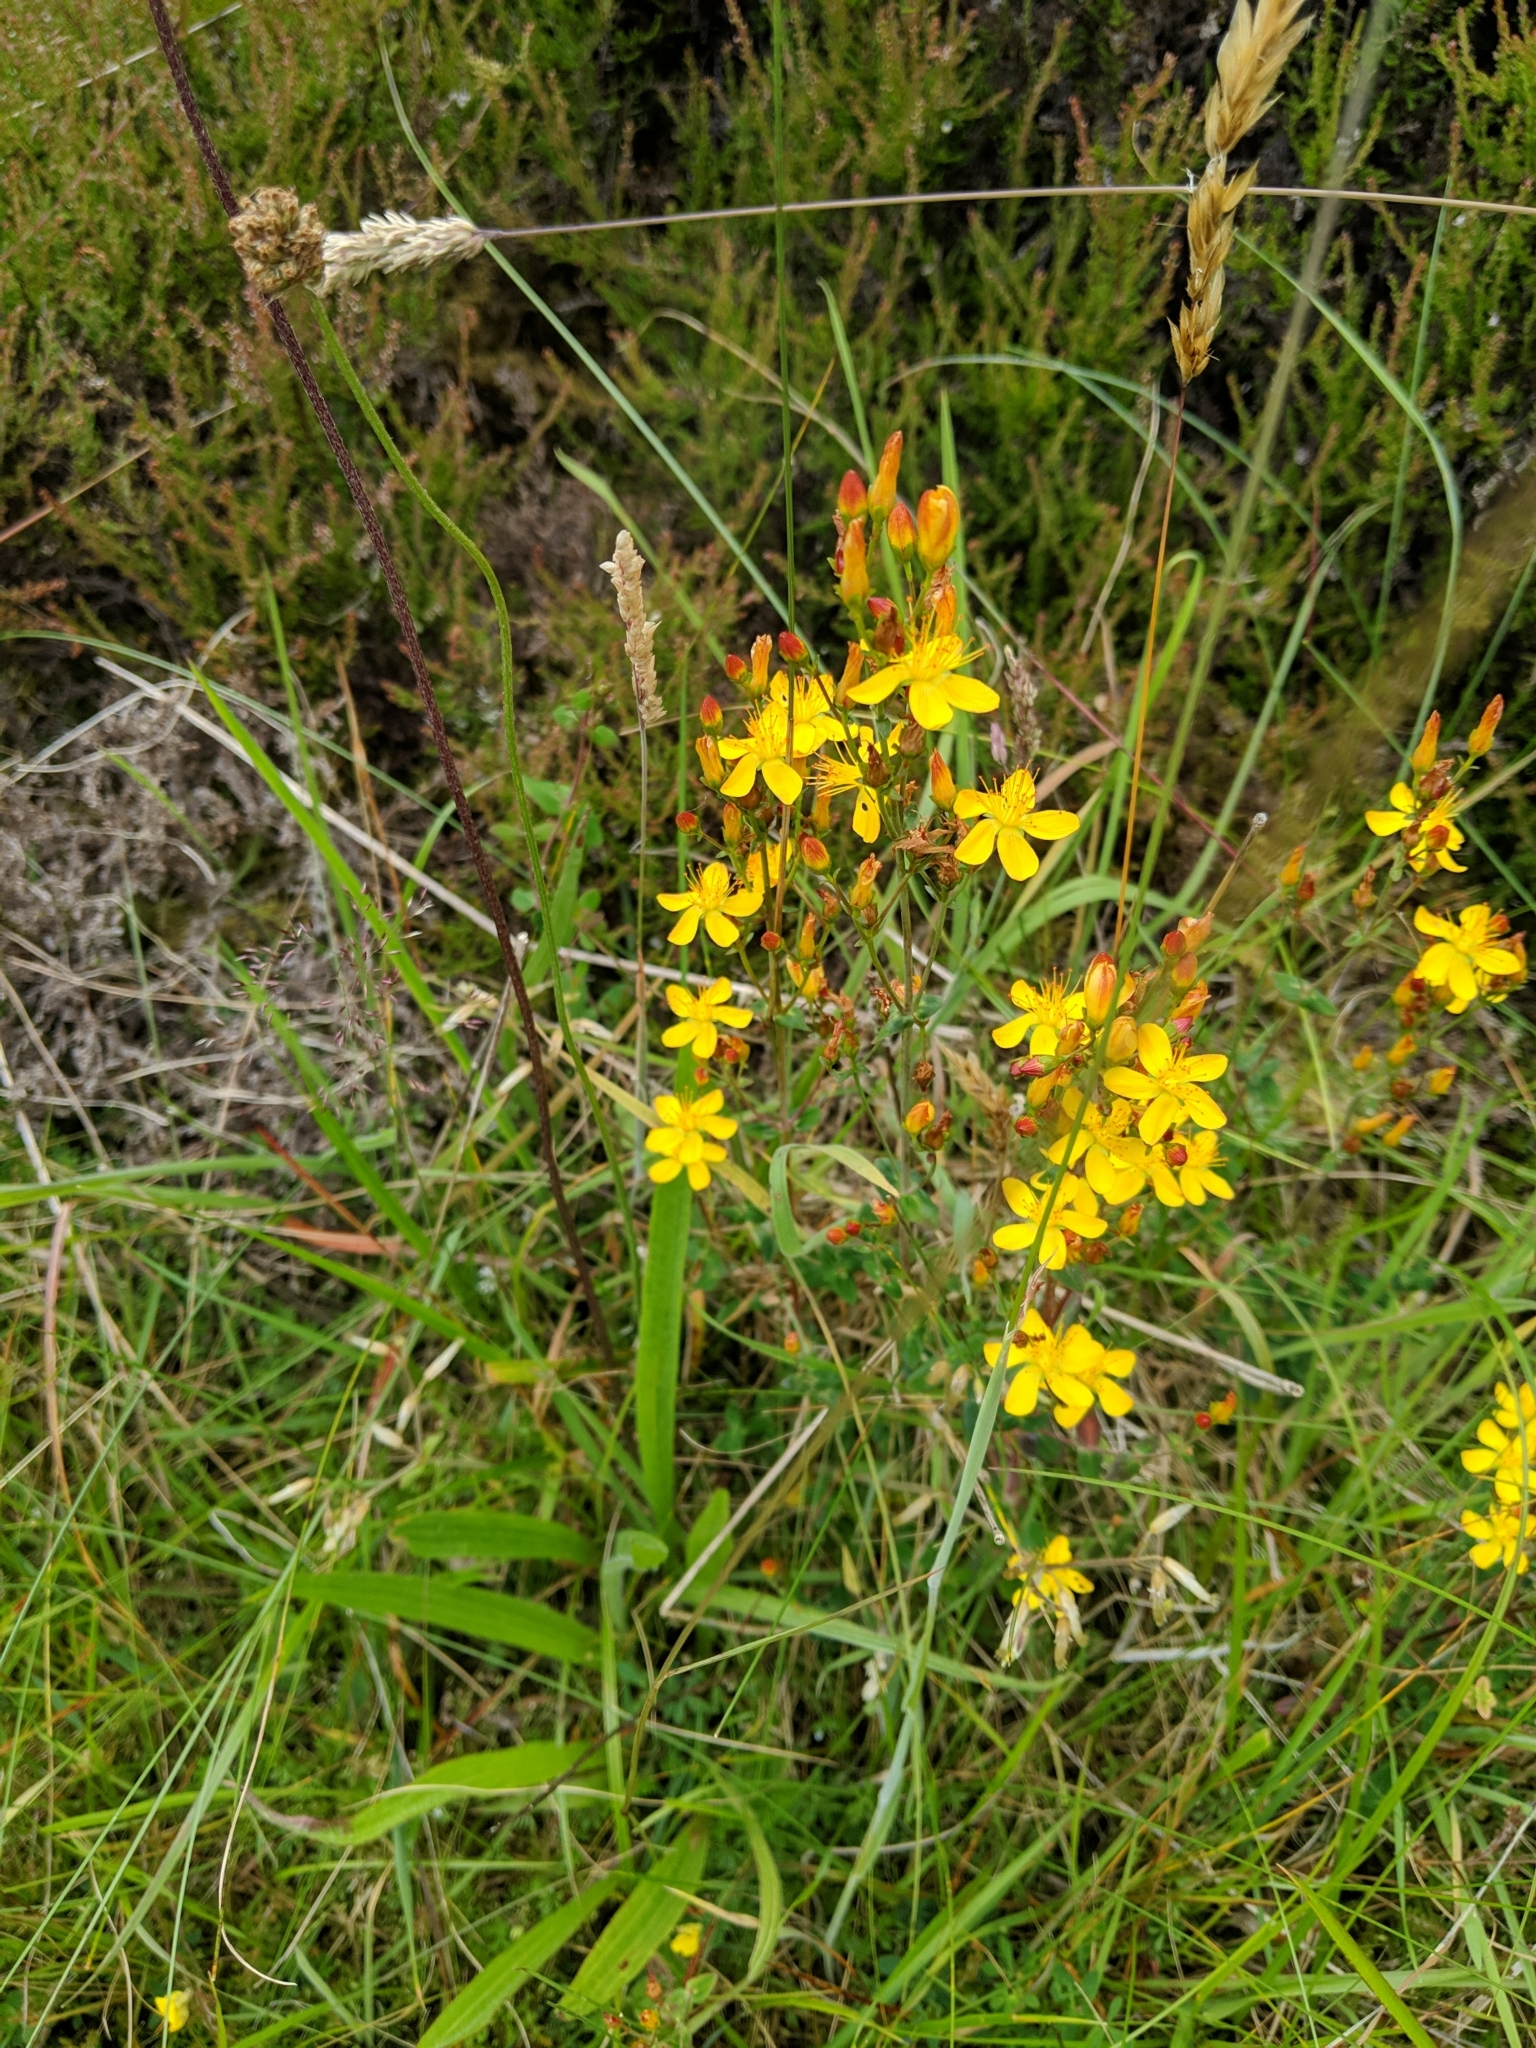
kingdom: Plantae
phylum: Tracheophyta
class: Magnoliopsida
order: Malpighiales
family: Hypericaceae
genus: Hypericum
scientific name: Hypericum pulchrum
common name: Slender st. john's-wort
